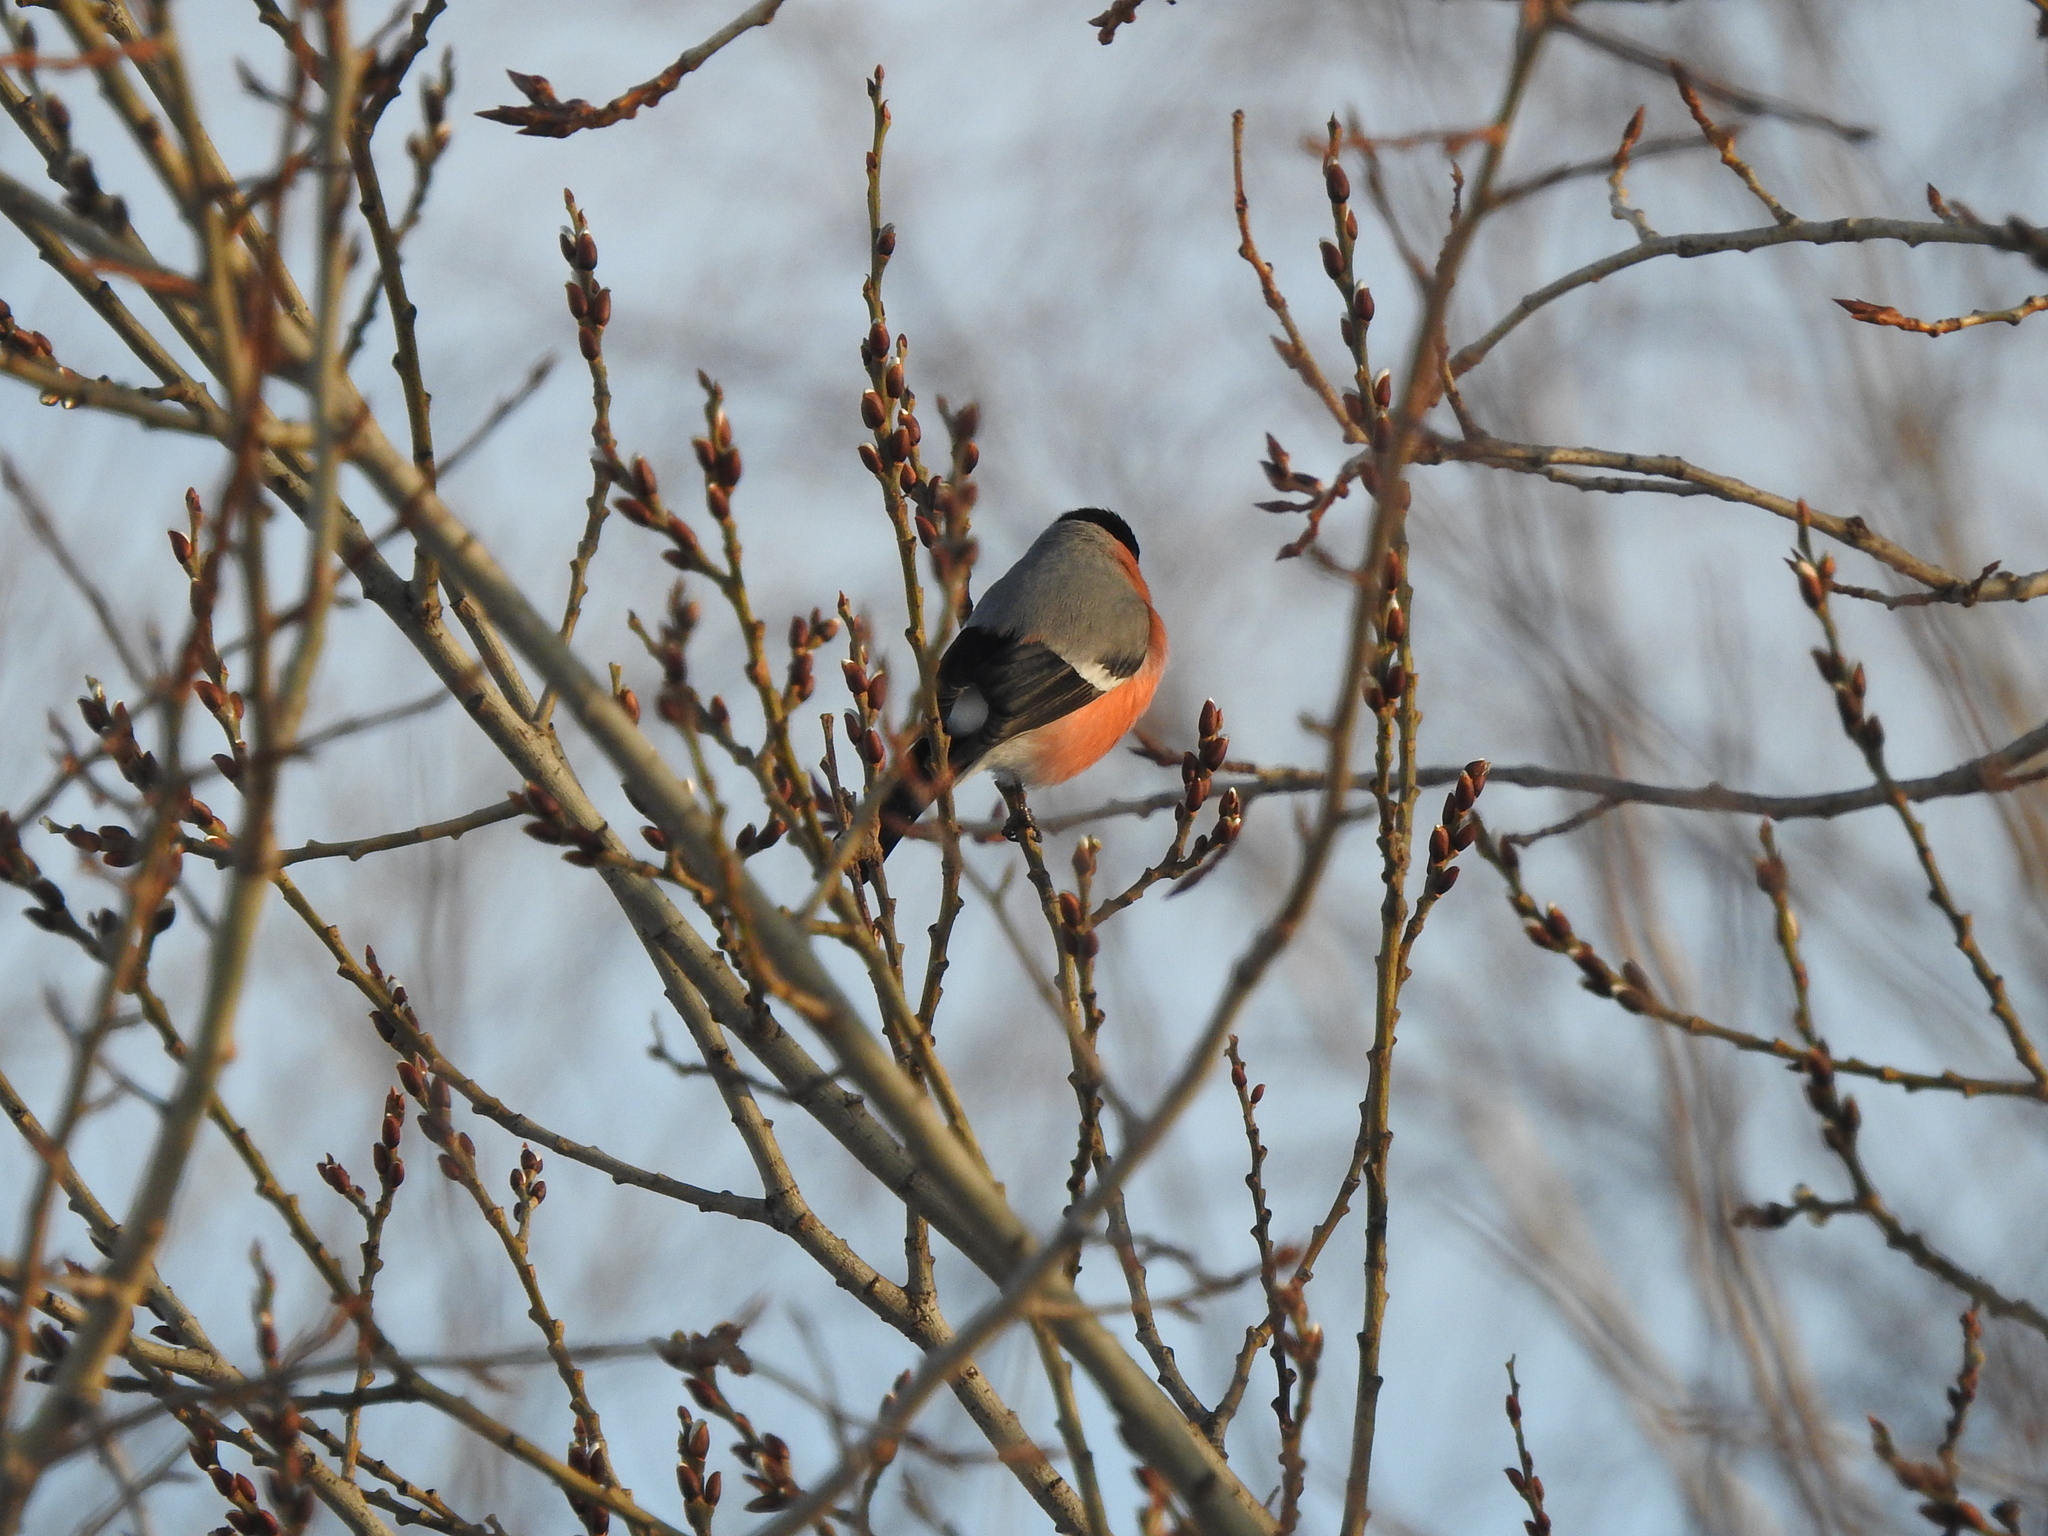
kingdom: Animalia
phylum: Chordata
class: Aves
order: Passeriformes
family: Fringillidae
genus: Pyrrhula
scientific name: Pyrrhula pyrrhula
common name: Eurasian bullfinch
